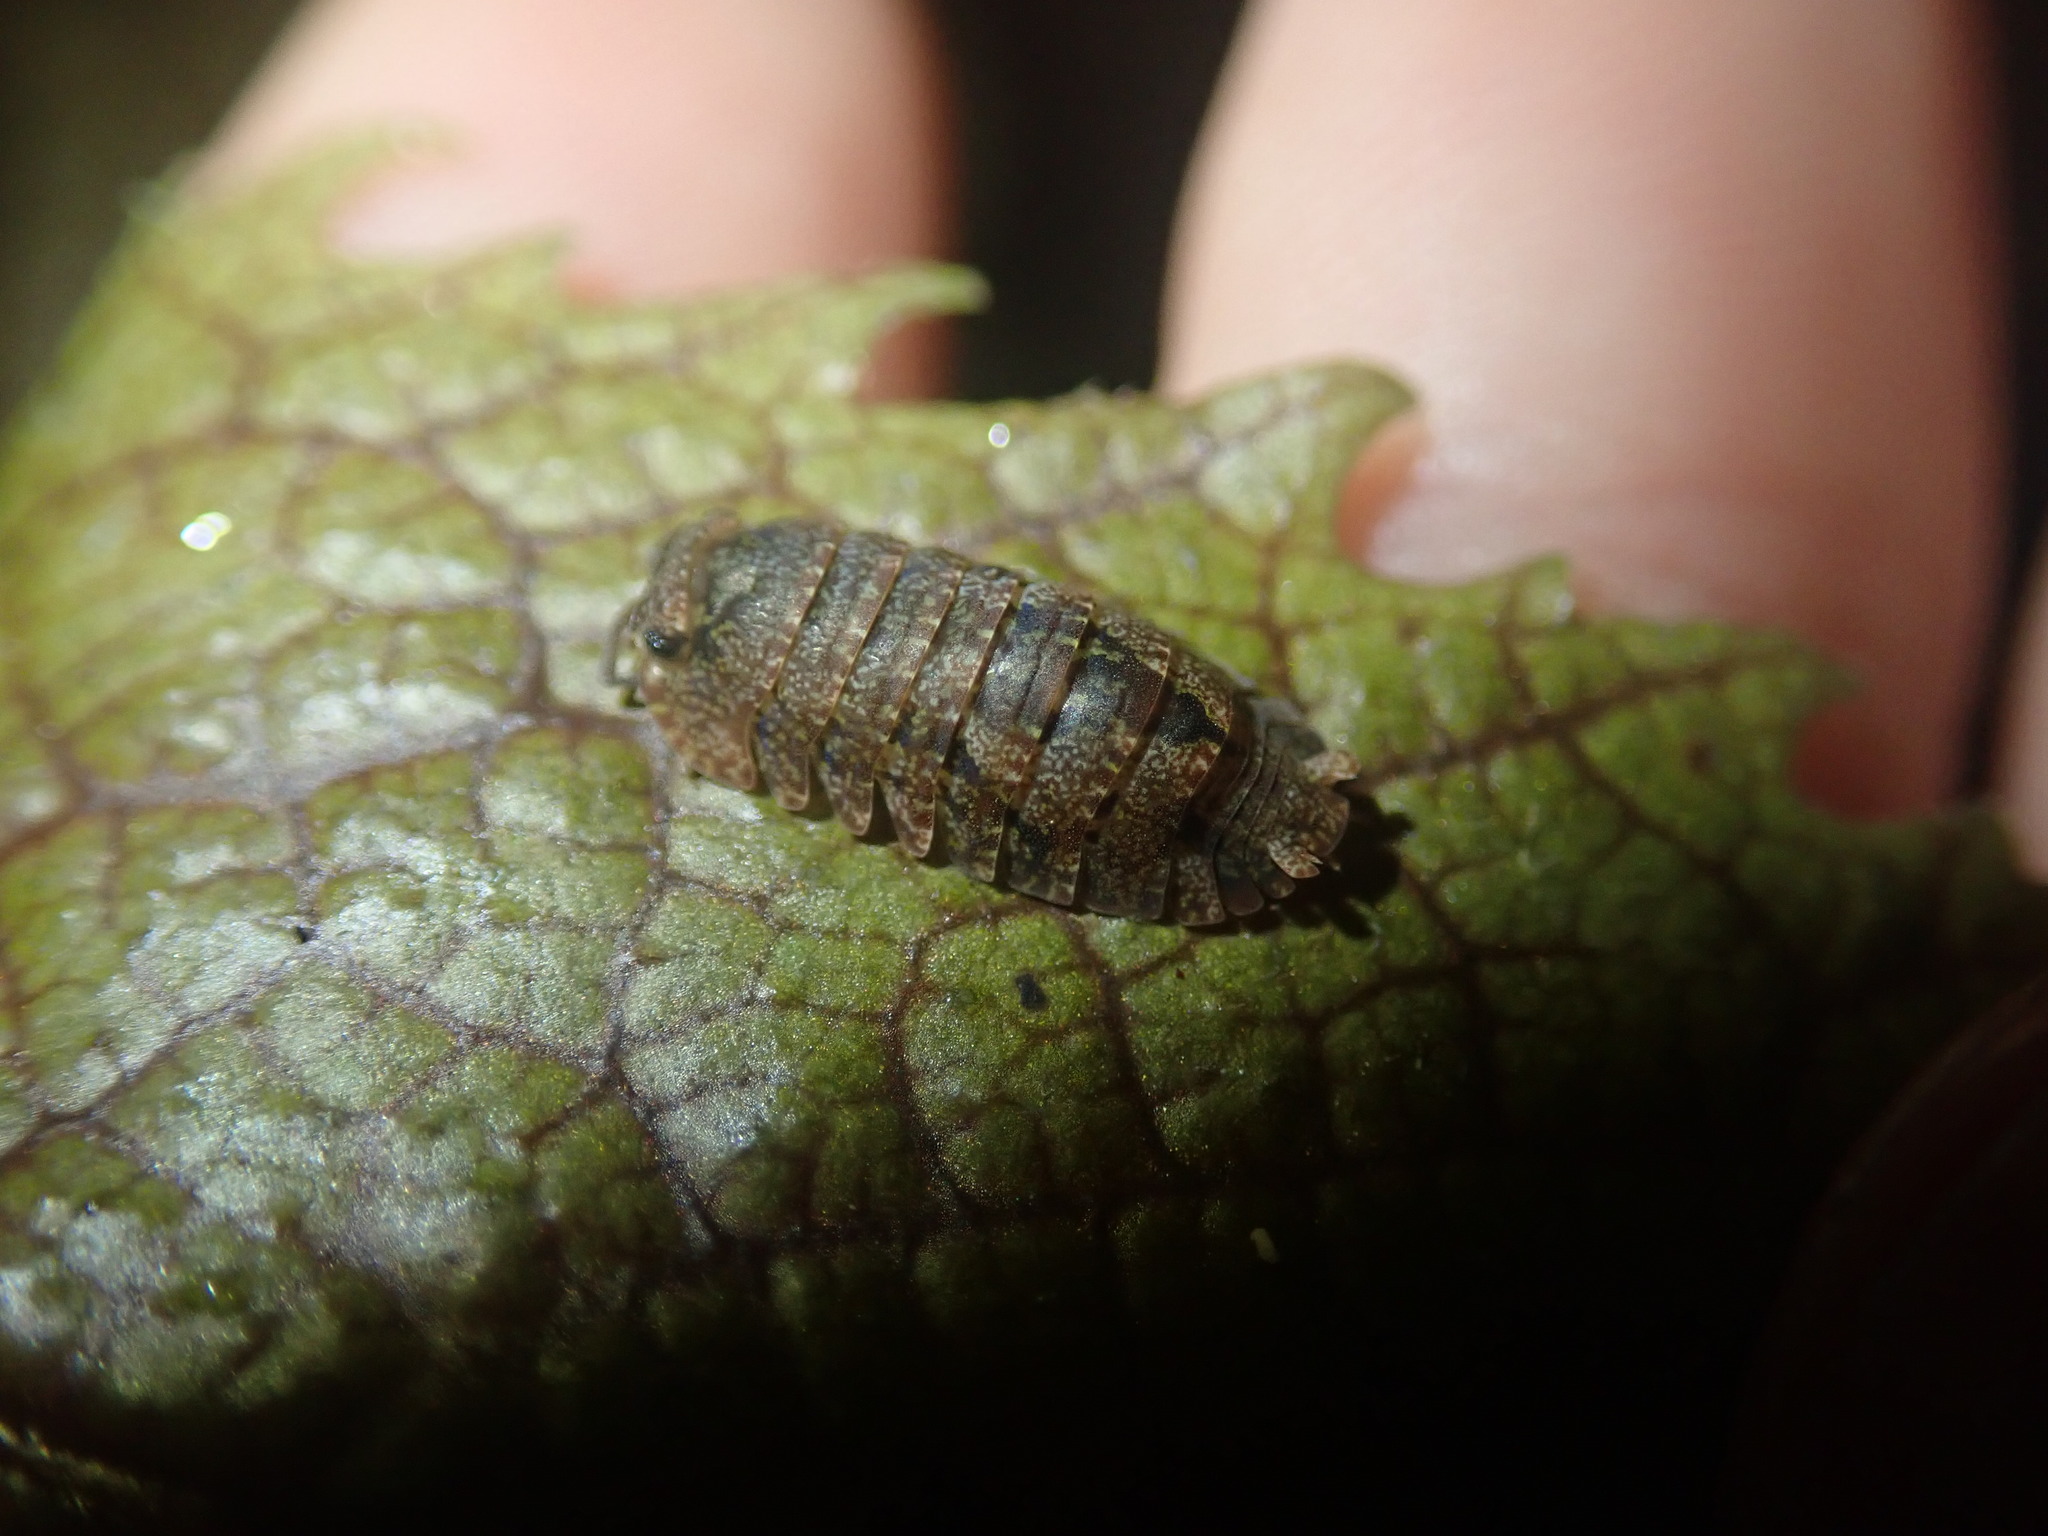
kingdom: Animalia
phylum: Arthropoda
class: Malacostraca
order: Isopoda
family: Armadillidae
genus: Cubaris
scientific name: Cubaris tarangensis
